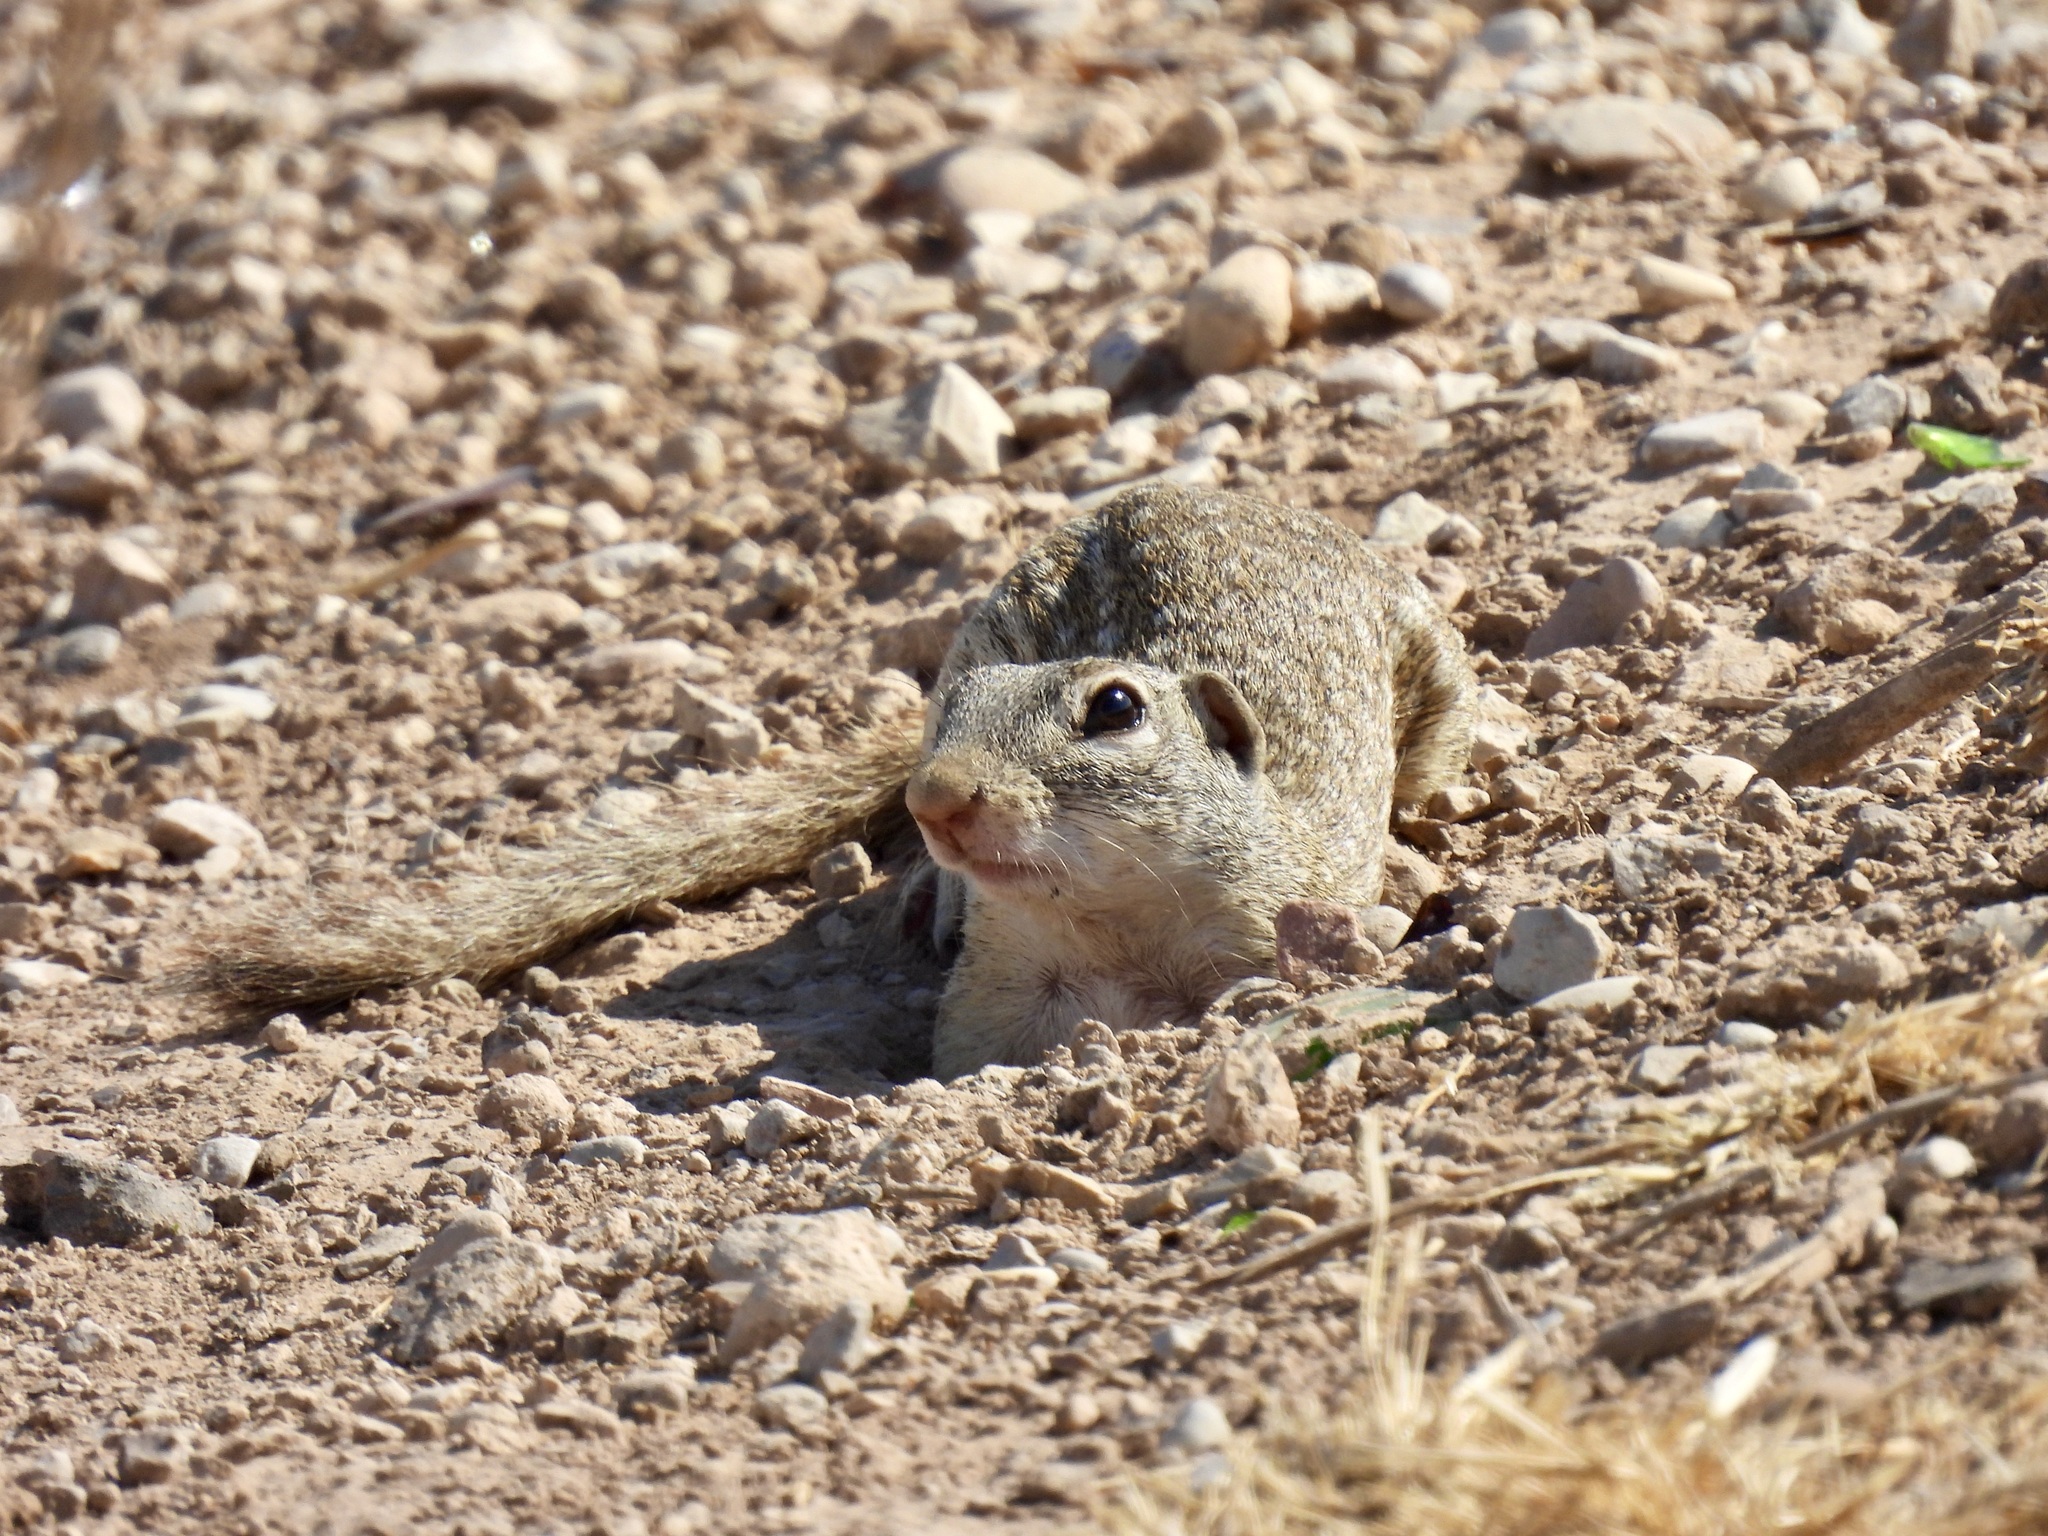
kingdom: Animalia
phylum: Chordata
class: Mammalia
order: Rodentia
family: Sciuridae
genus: Ictidomys
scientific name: Ictidomys parvidens
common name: Rio grande ground squirrel
